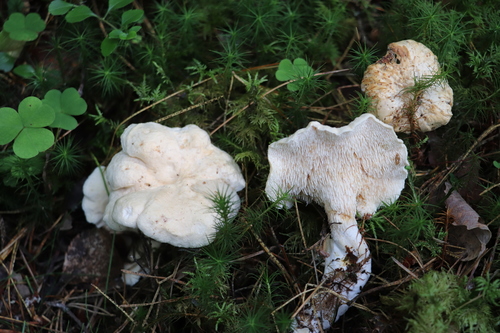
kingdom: Fungi
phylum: Basidiomycota
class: Agaricomycetes
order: Cantharellales
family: Hydnaceae
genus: Hydnum
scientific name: Hydnum repandum
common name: Wood hedgehog
